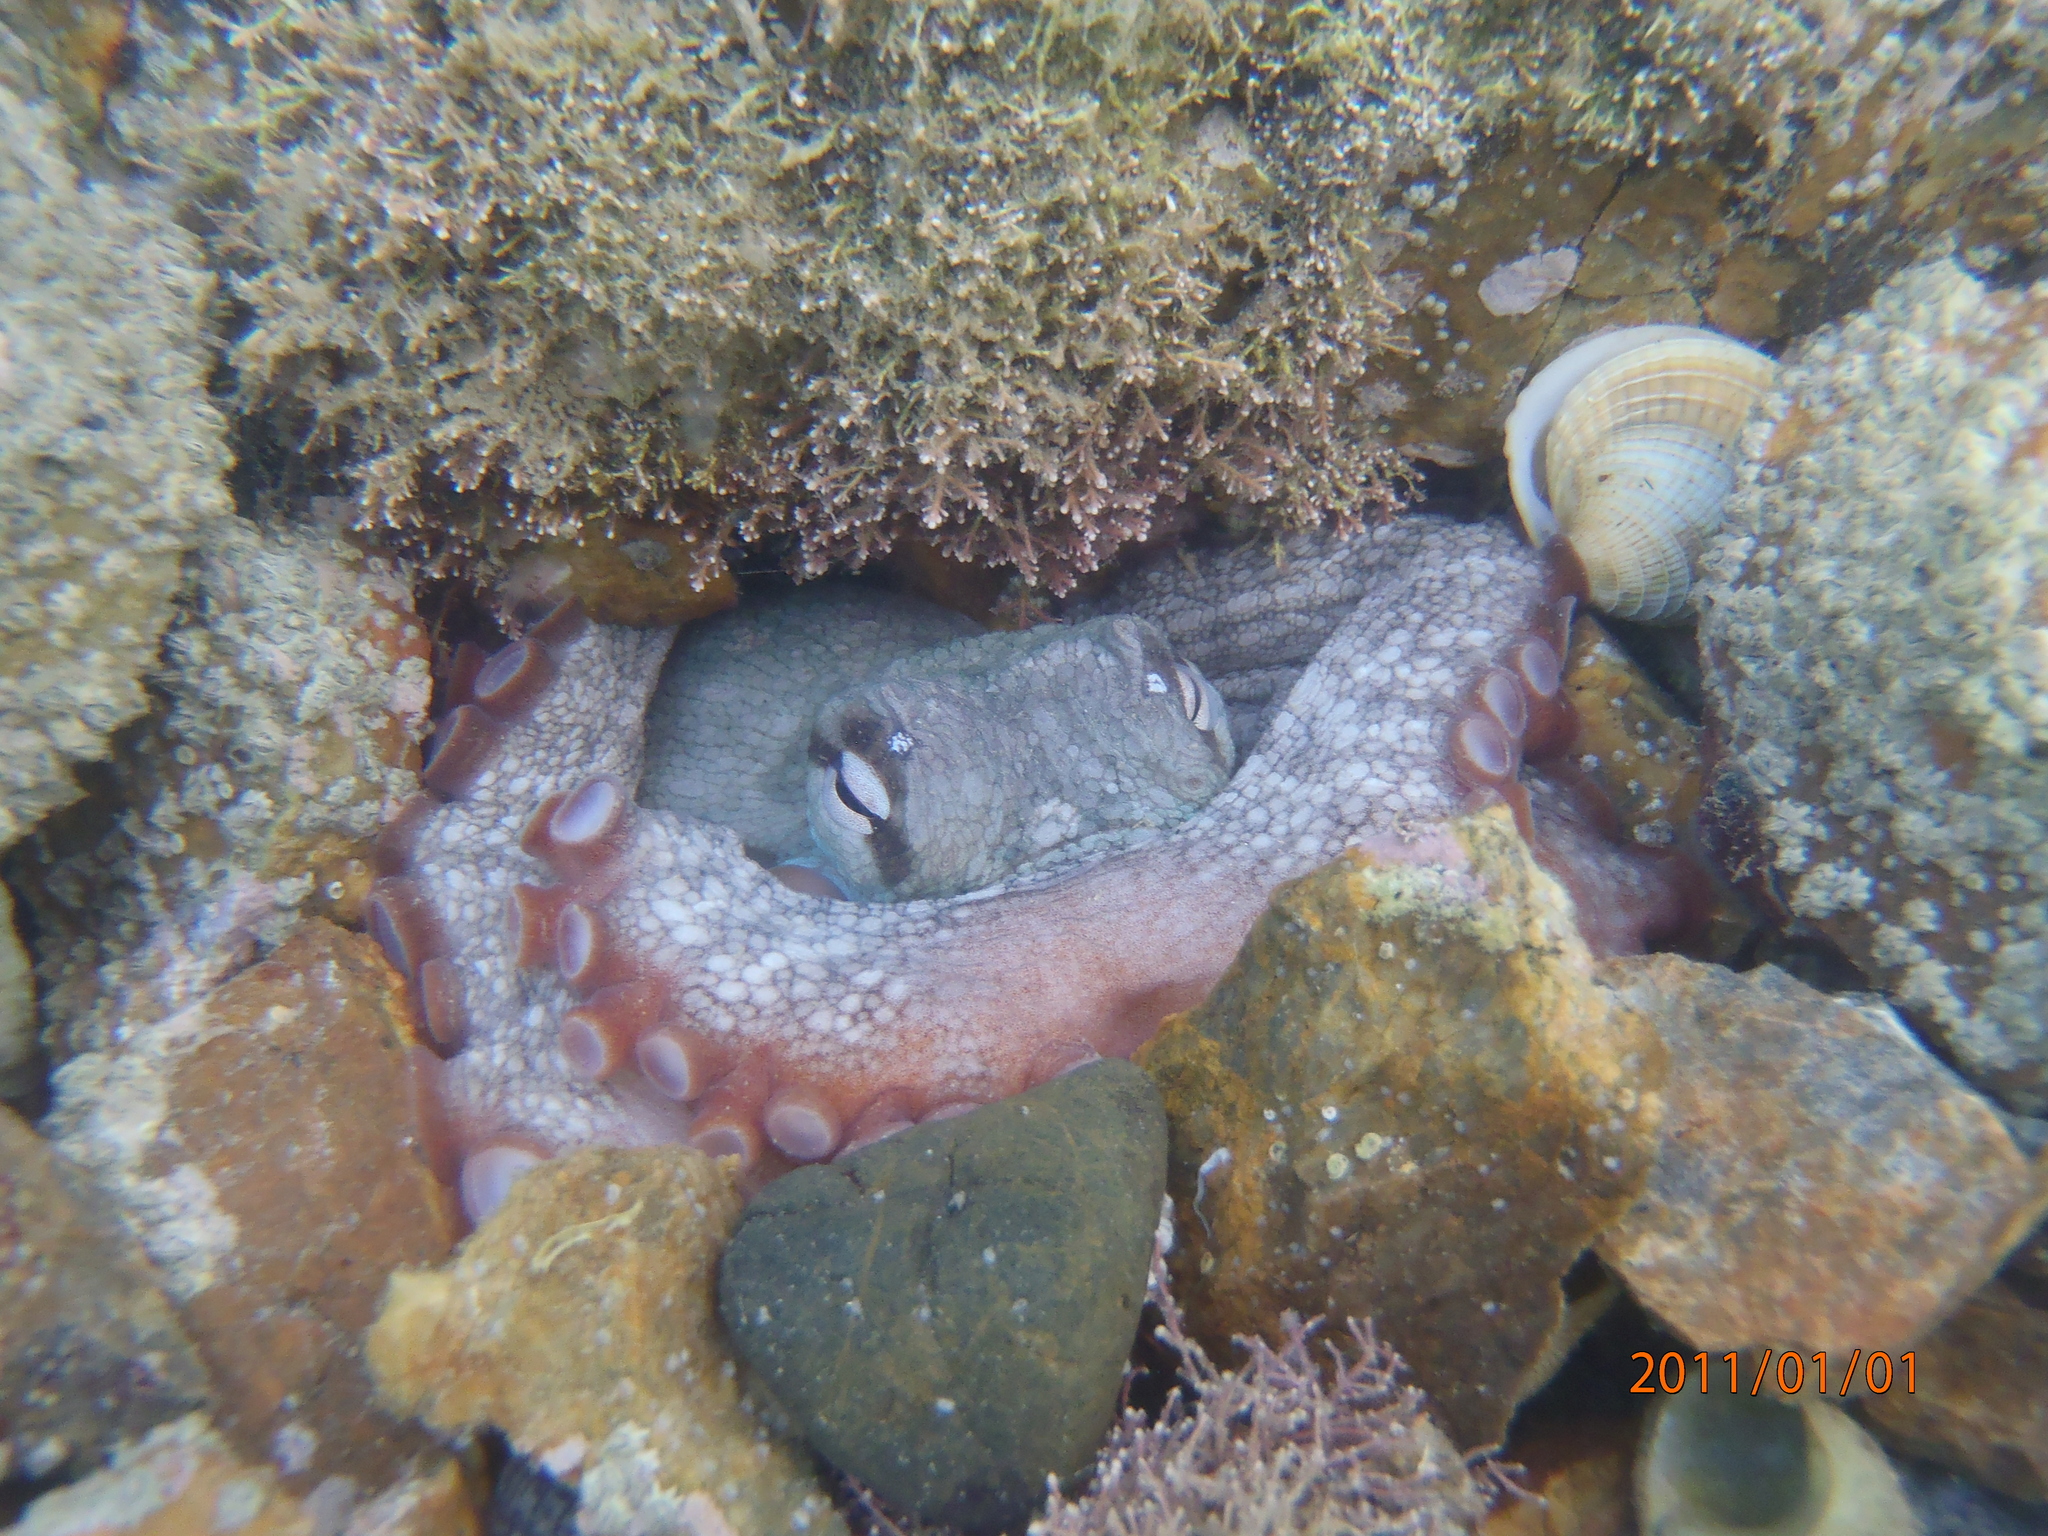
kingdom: Animalia
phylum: Mollusca
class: Cephalopoda
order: Octopoda
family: Octopodidae
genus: Octopus
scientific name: Octopus tetricus
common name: Sydney octopus
